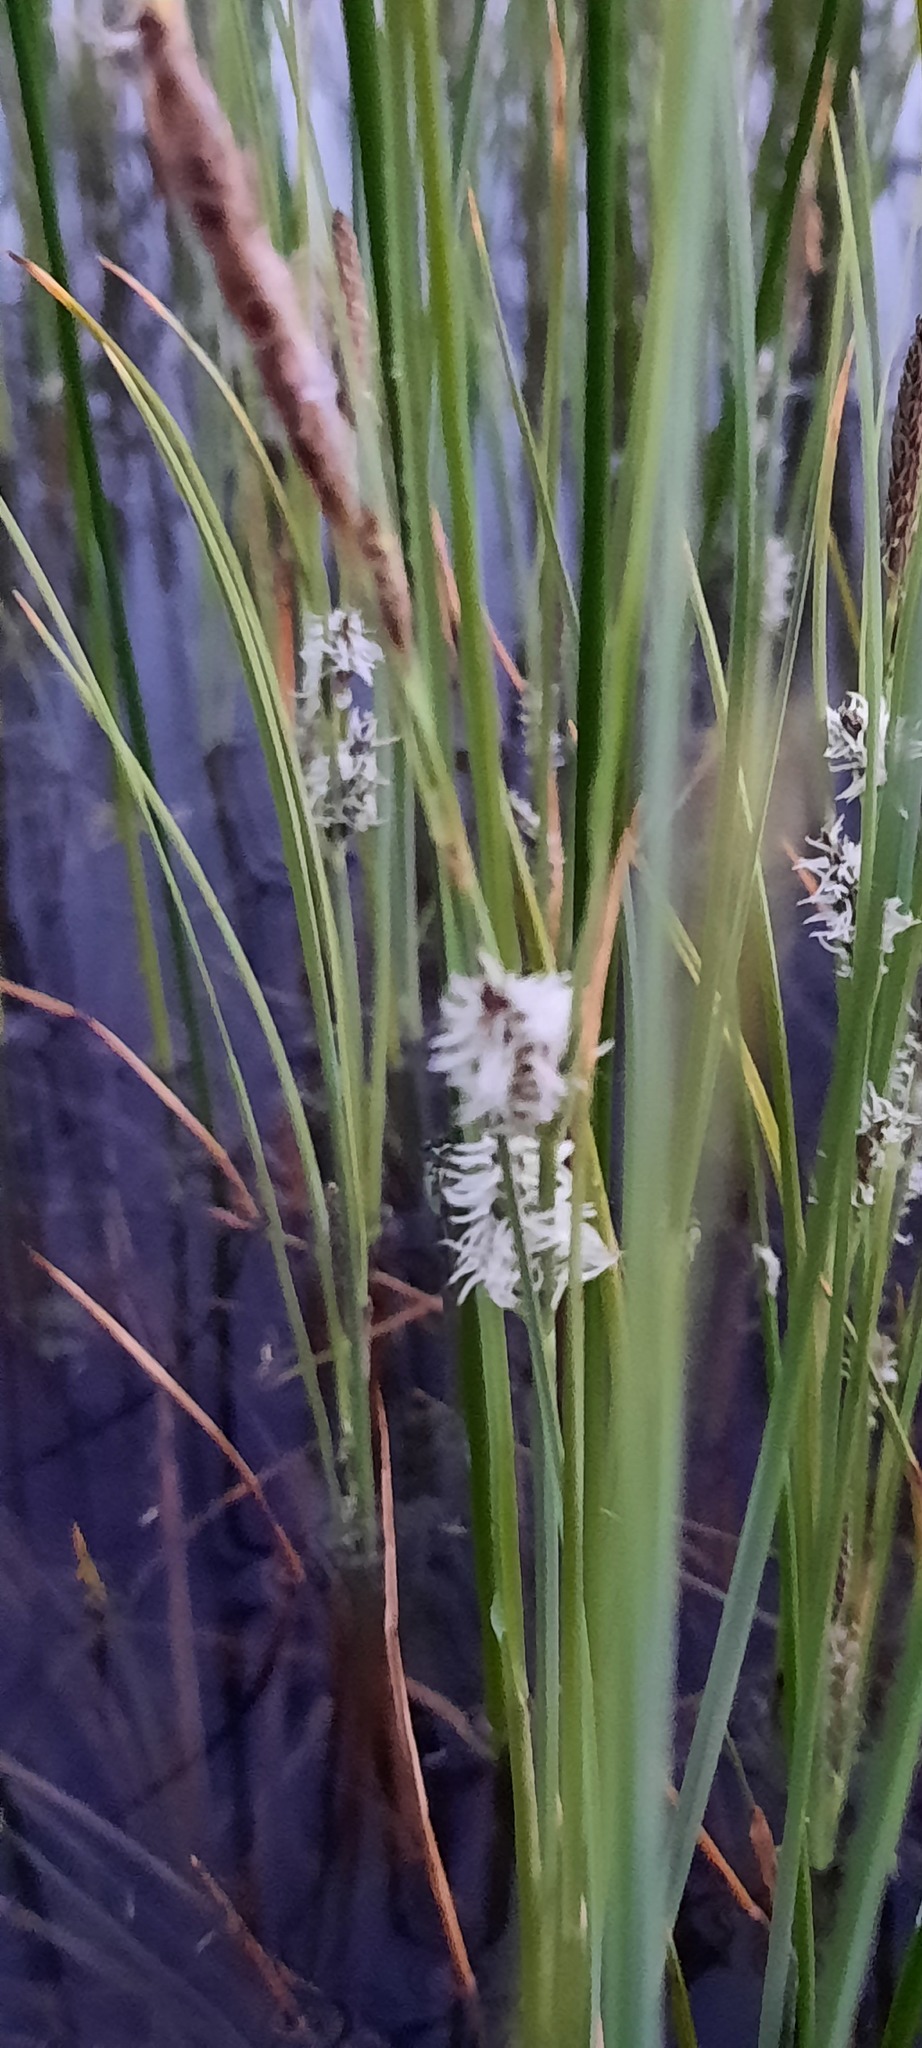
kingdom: Plantae
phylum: Tracheophyta
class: Liliopsida
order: Poales
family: Cyperaceae
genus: Carex
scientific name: Carex trinervis
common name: Three-nerved sedge
